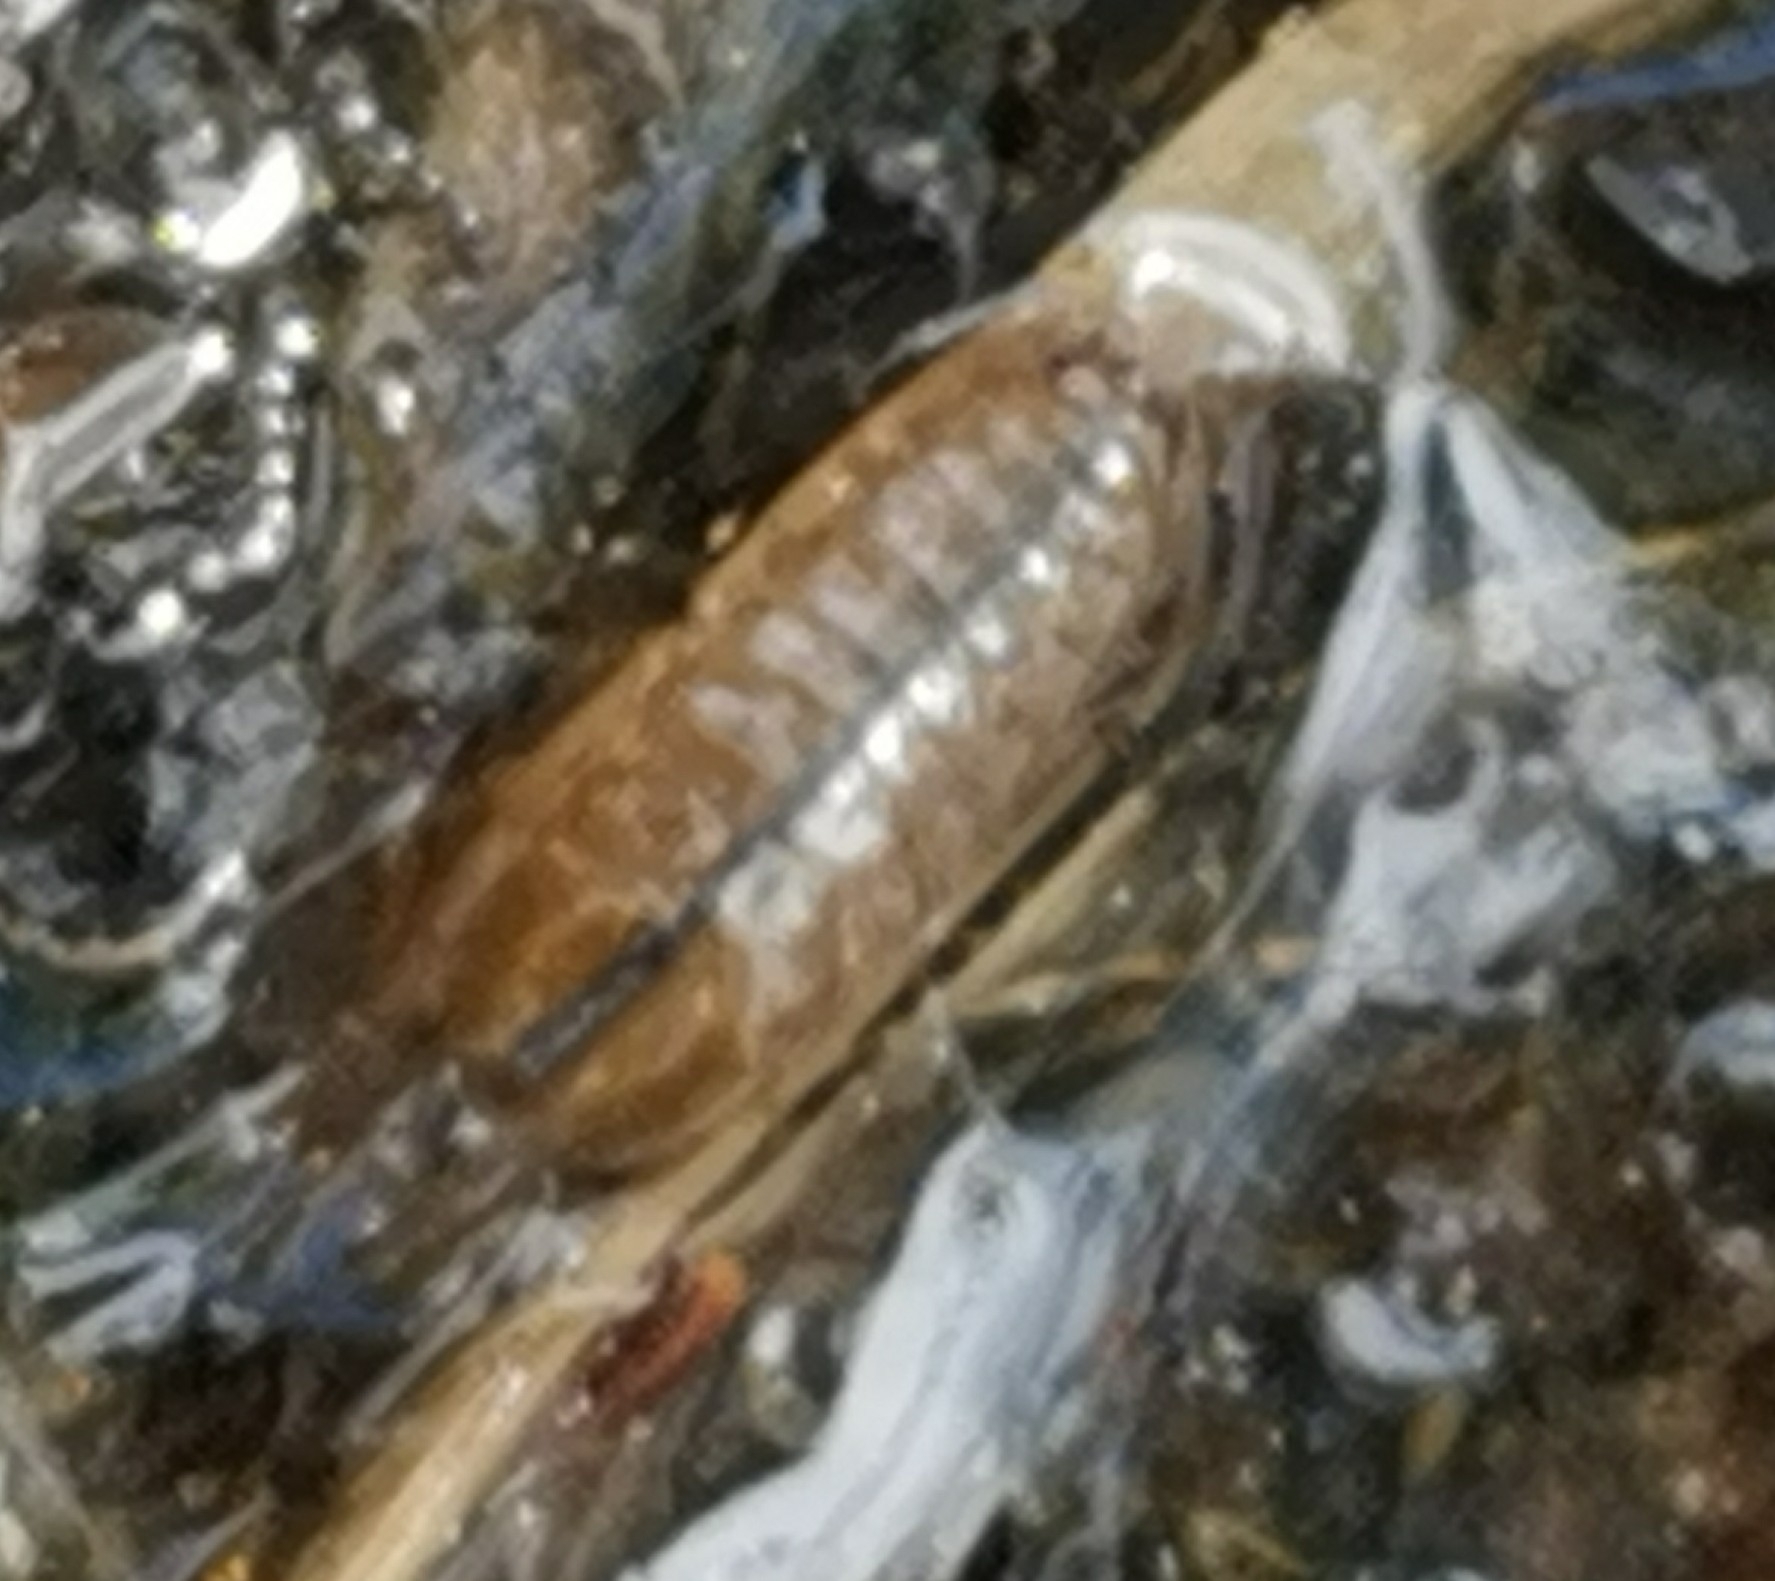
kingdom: Animalia
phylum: Arthropoda
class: Malacostraca
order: Isopoda
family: Asellidae
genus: Asellus
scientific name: Asellus aquaticus
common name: Water hog lice/slaters
